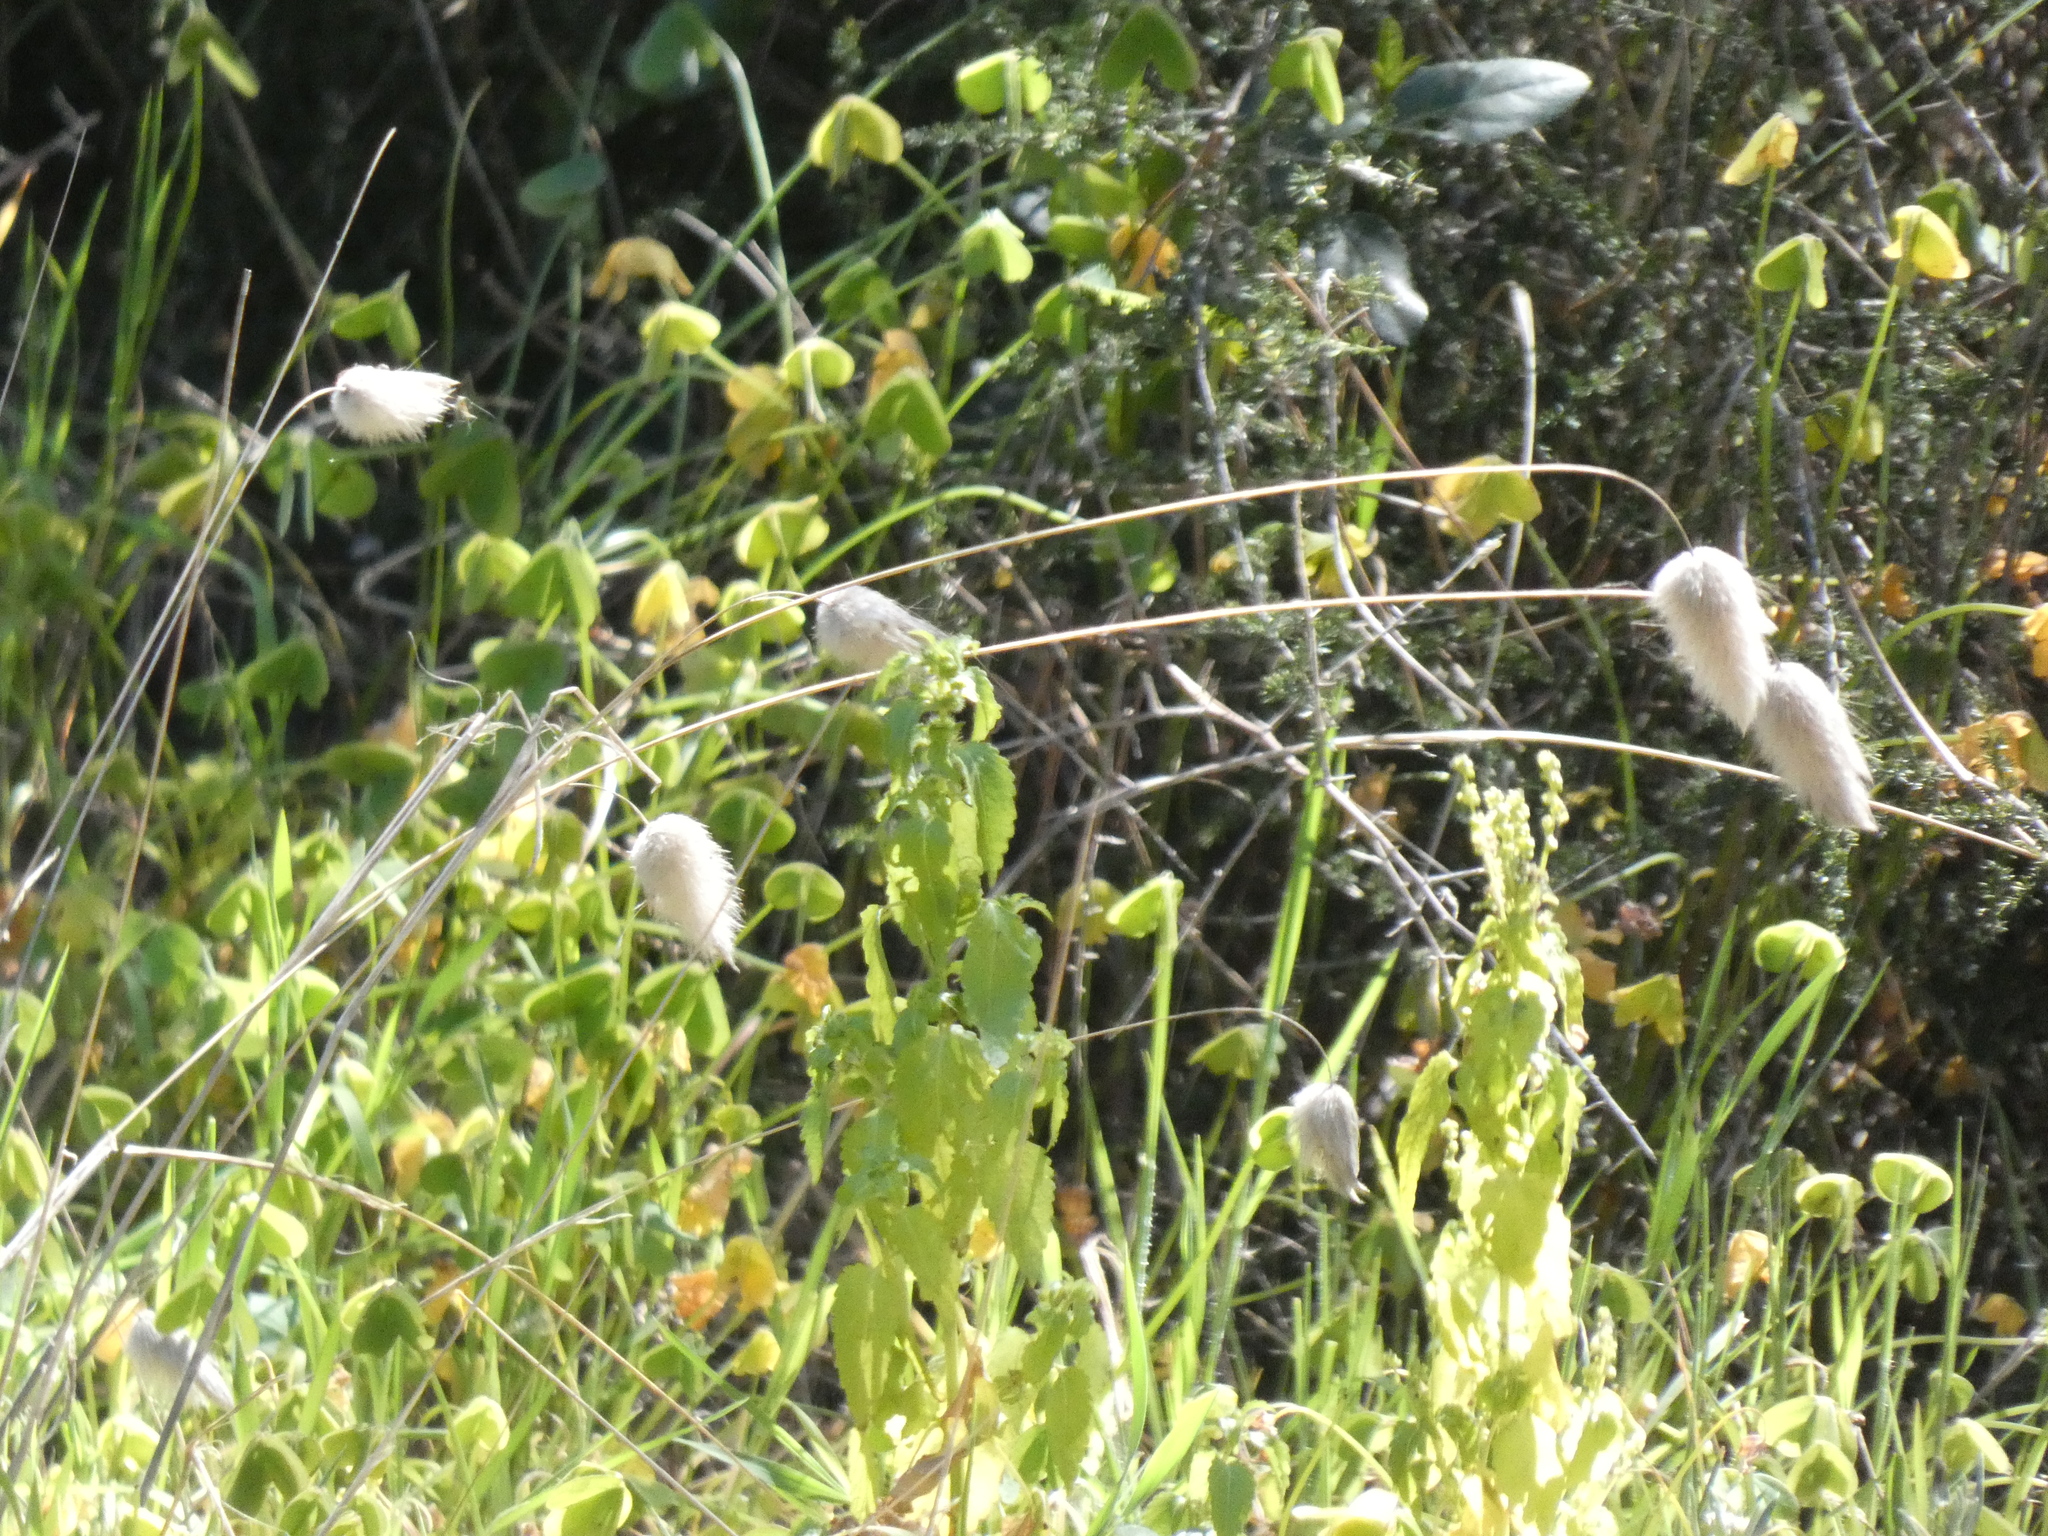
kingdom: Plantae
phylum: Tracheophyta
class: Liliopsida
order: Poales
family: Poaceae
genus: Lagurus
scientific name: Lagurus ovatus
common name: Hare's-tail
